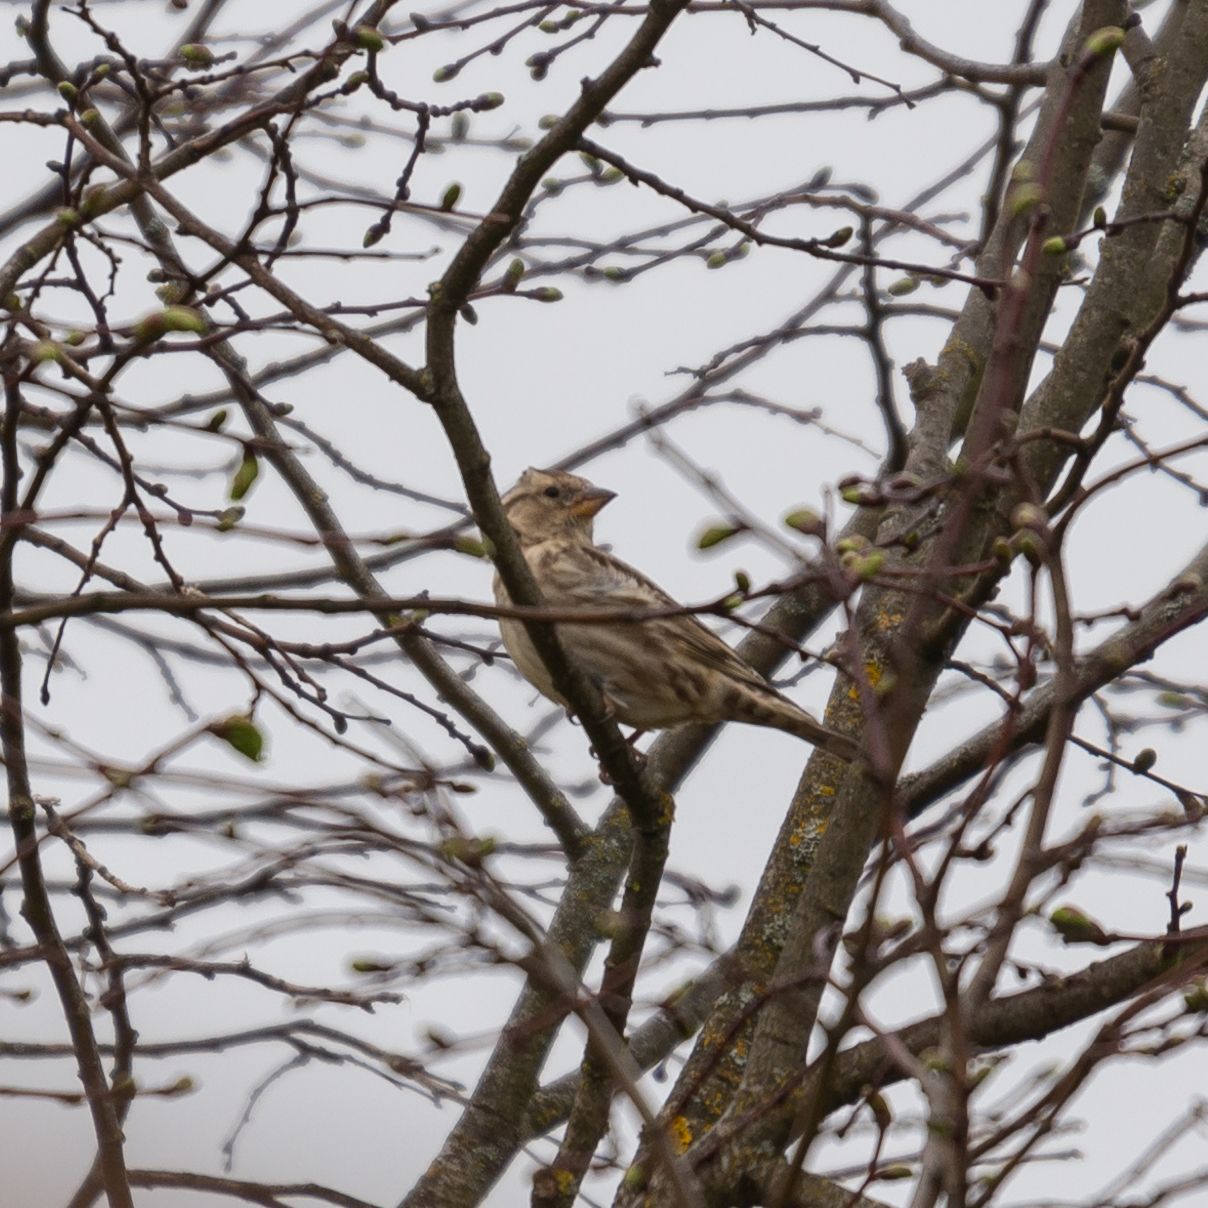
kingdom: Animalia
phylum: Chordata
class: Aves
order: Passeriformes
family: Passeridae
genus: Petronia
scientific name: Petronia petronia
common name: Rock sparrow
